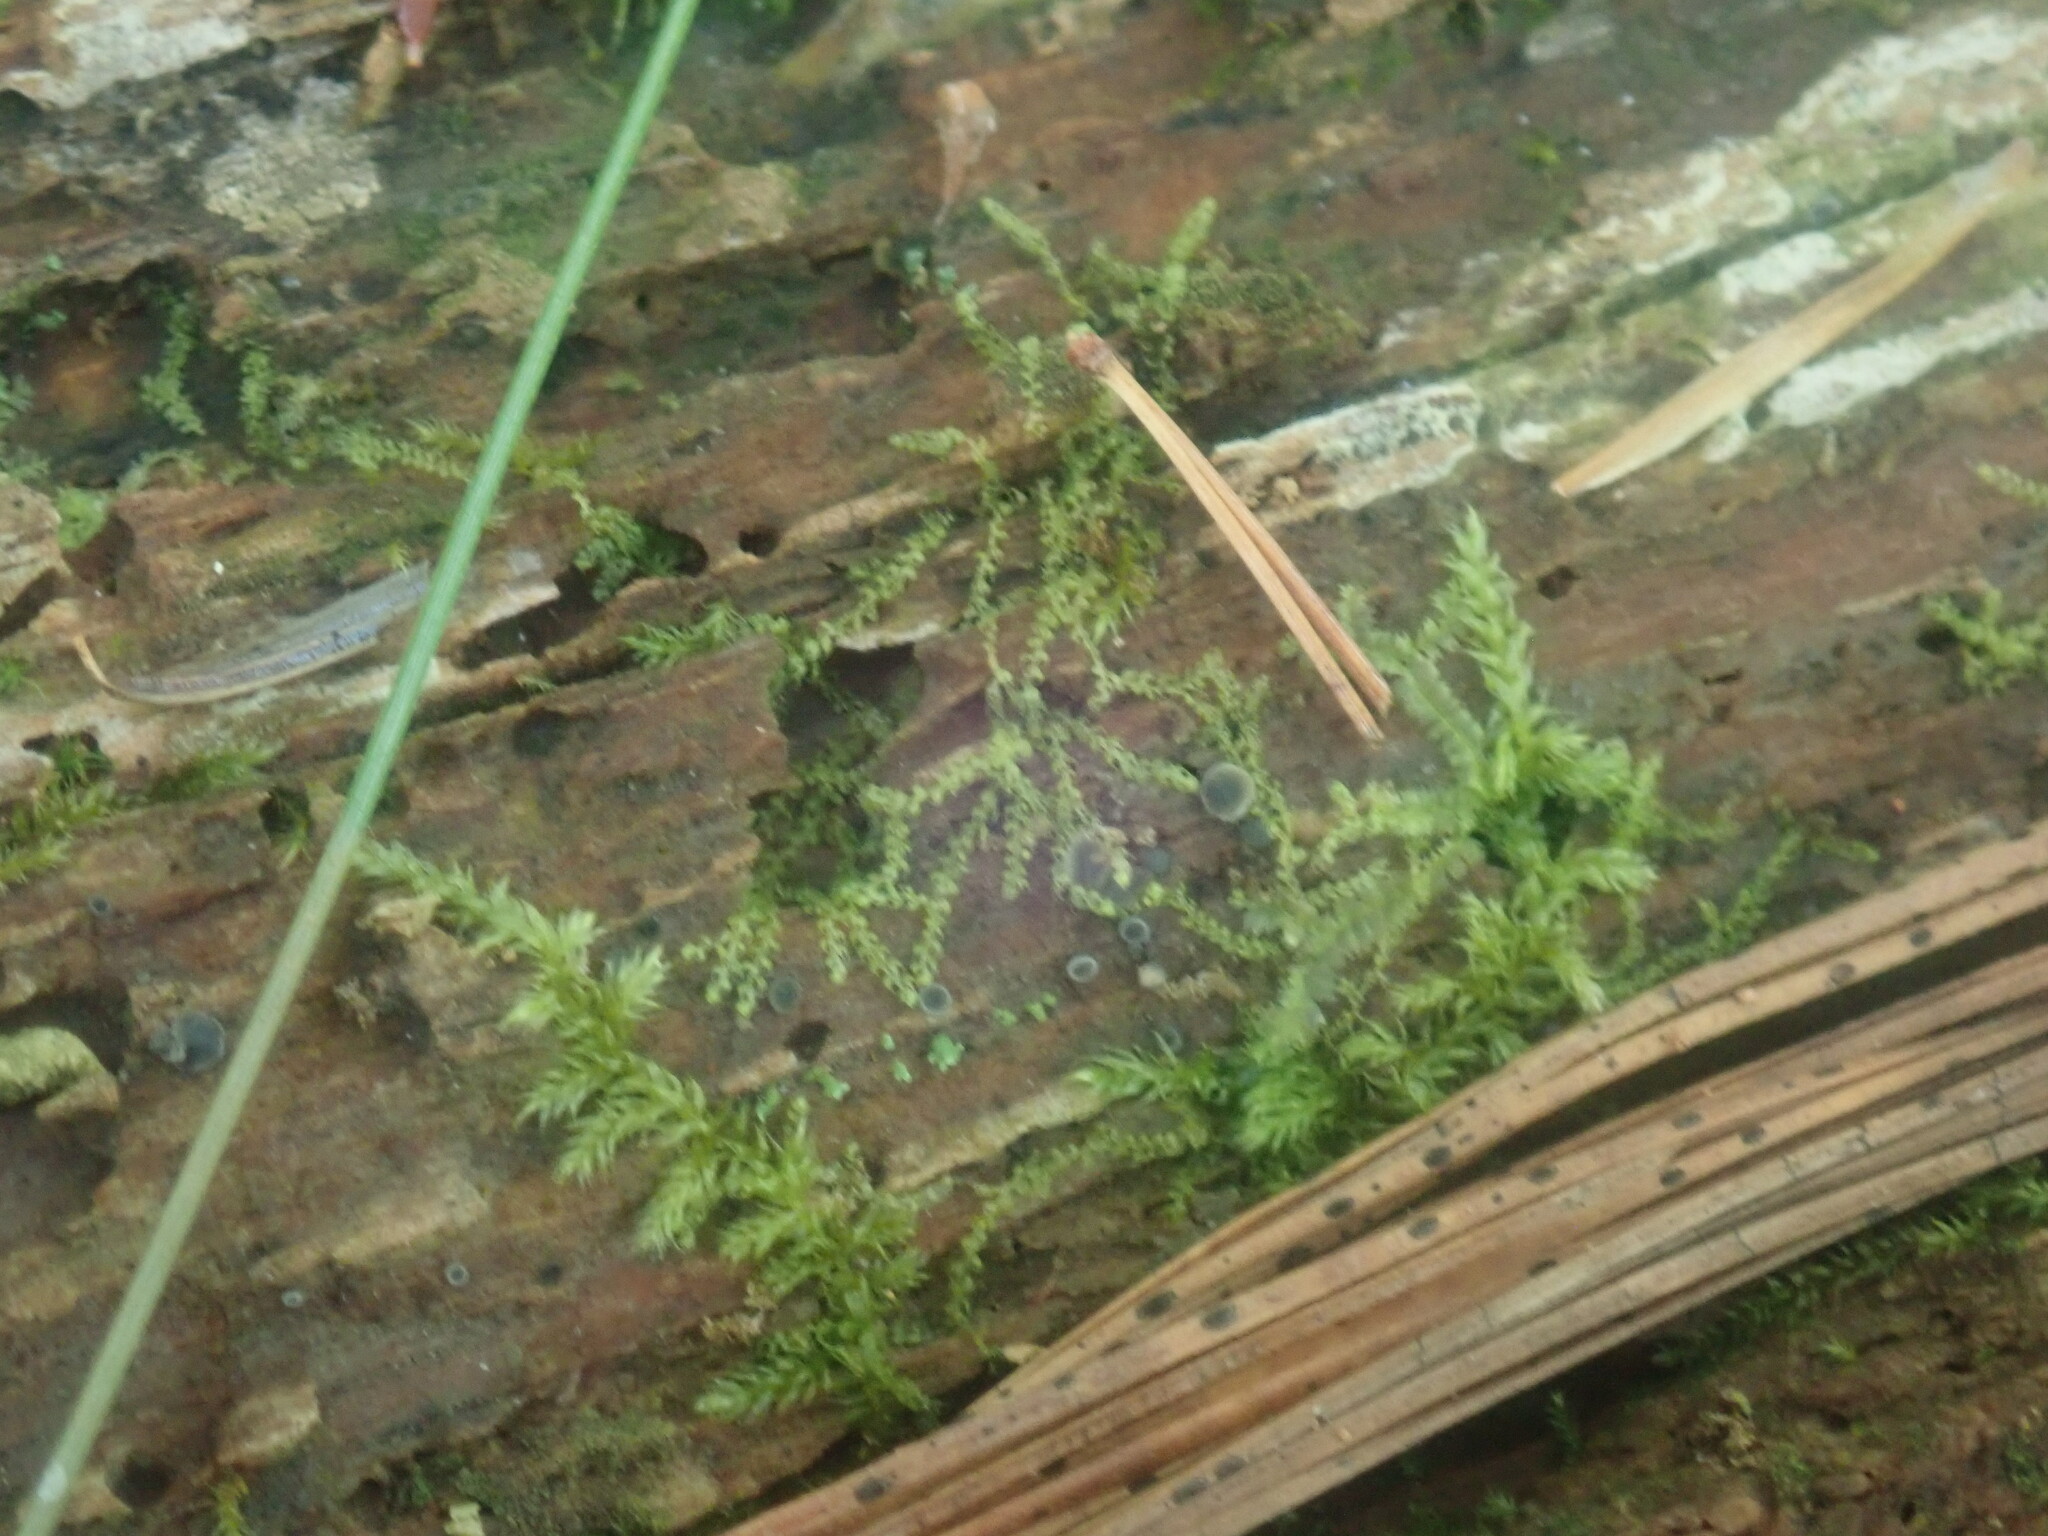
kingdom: Plantae
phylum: Marchantiophyta
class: Jungermanniopsida
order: Jungermanniales
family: Cephaloziaceae
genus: Nowellia
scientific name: Nowellia curvifolia
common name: Wood rustwort
